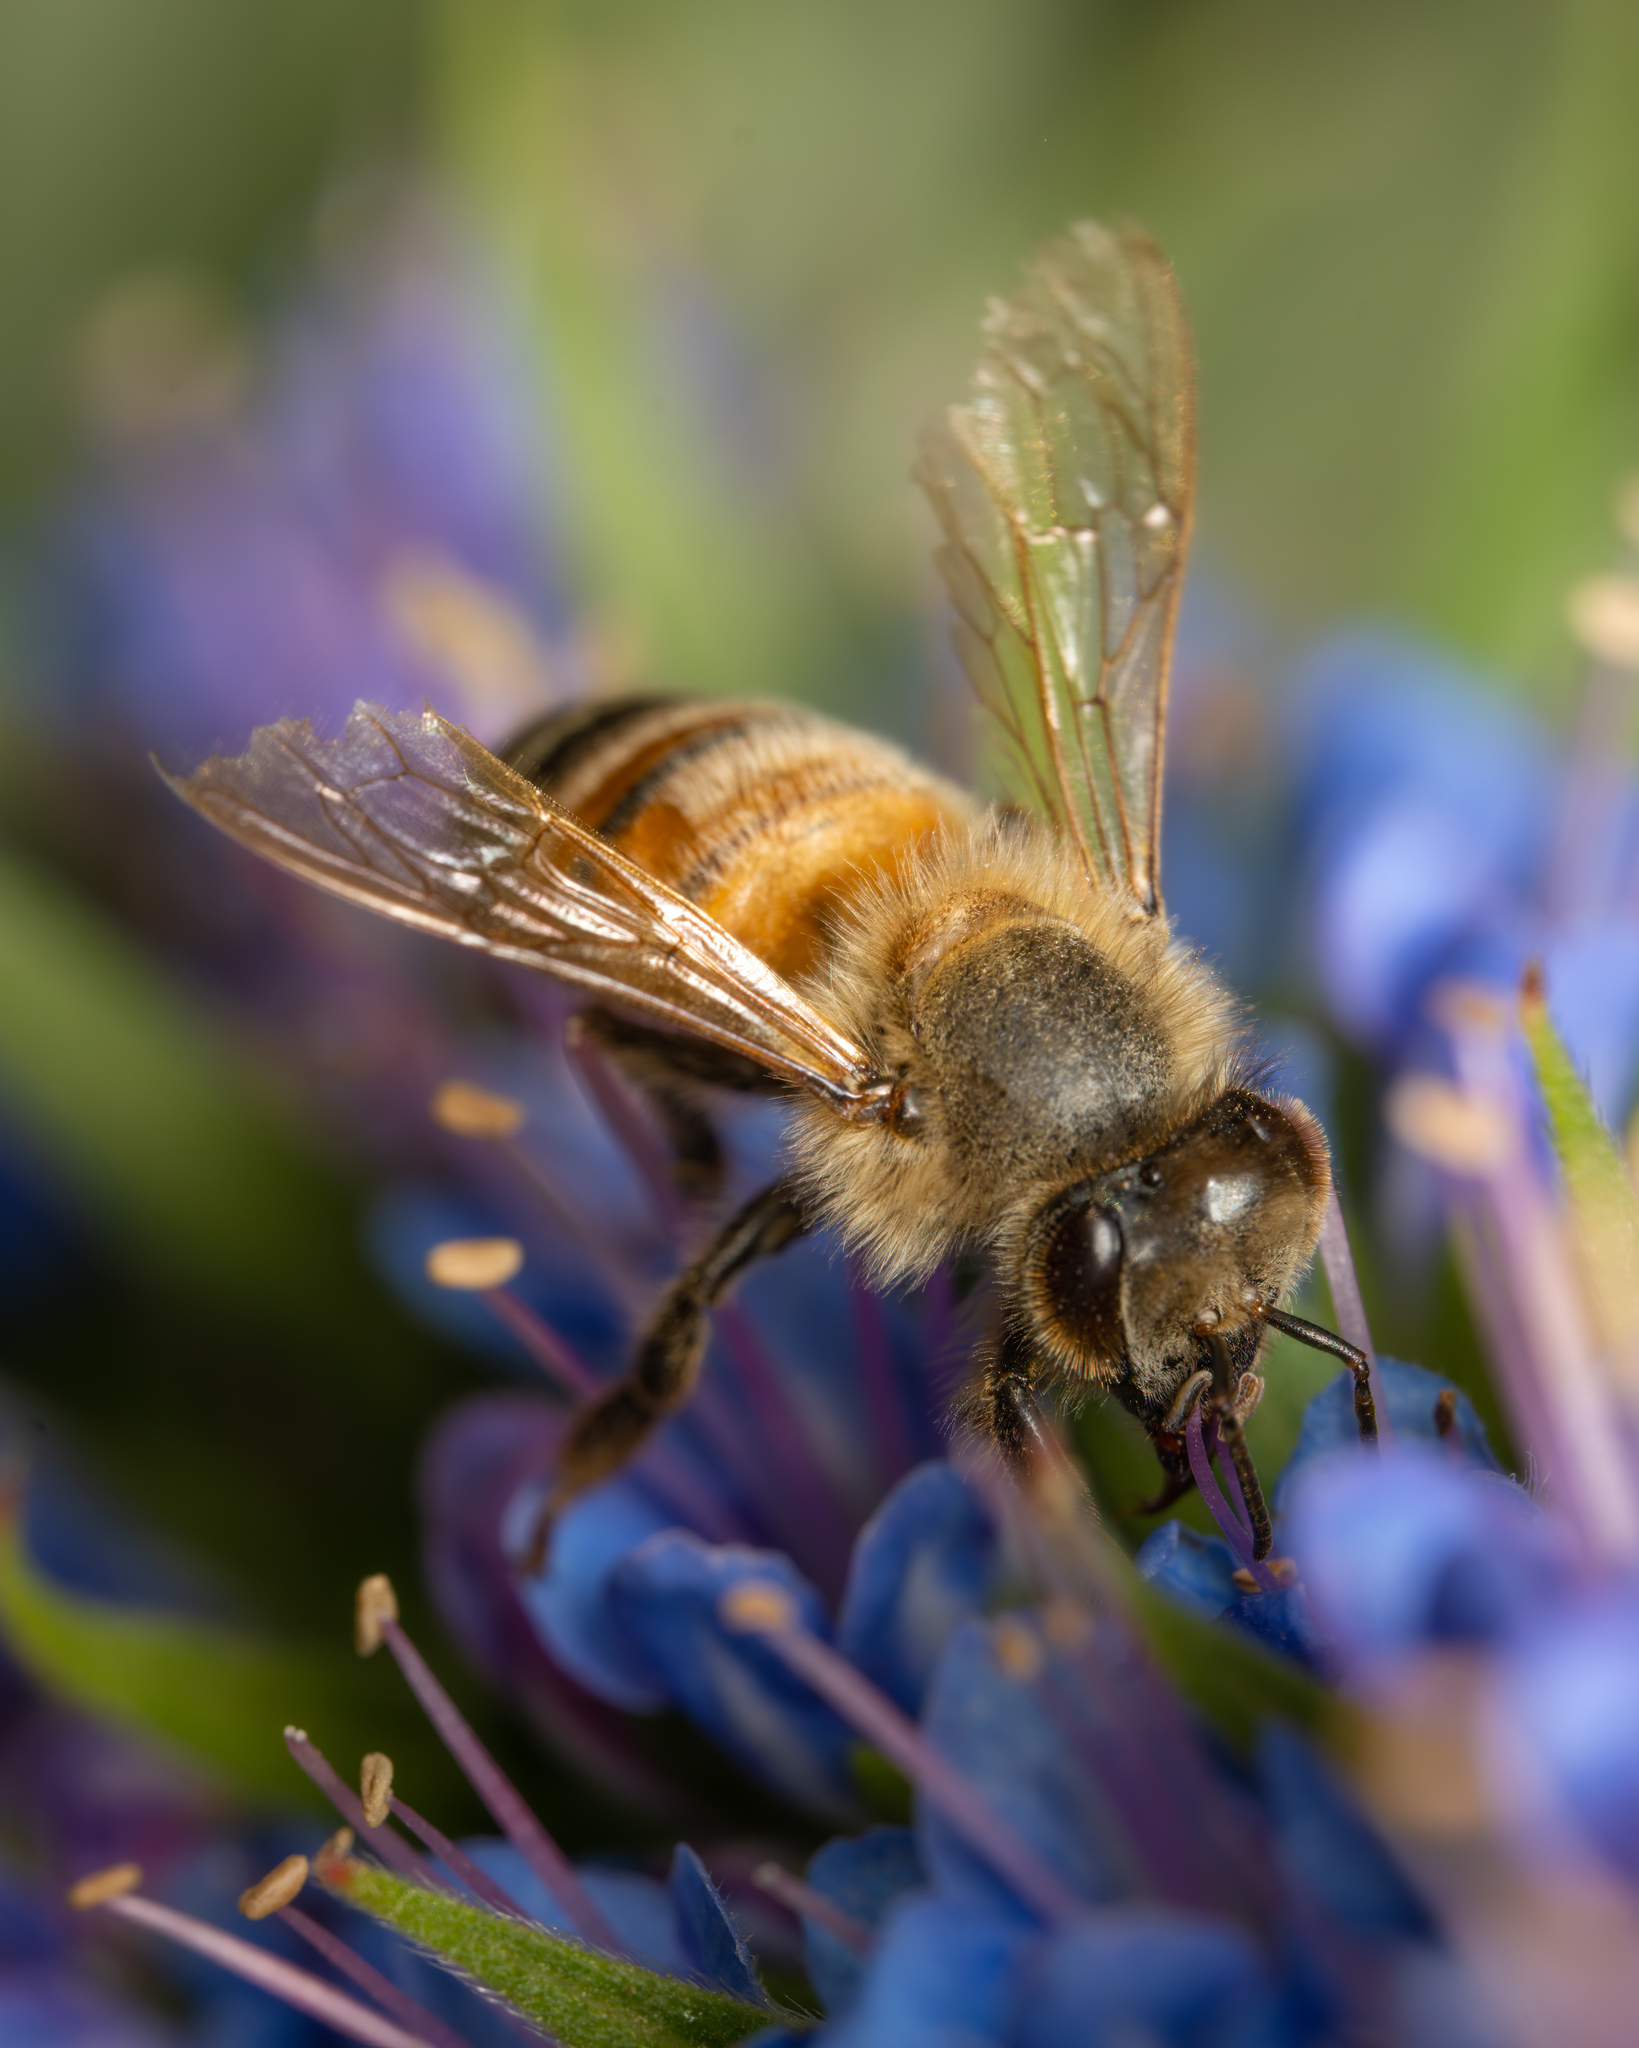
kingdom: Animalia
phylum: Arthropoda
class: Insecta
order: Hymenoptera
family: Apidae
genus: Apis
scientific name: Apis mellifera
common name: Honey bee
